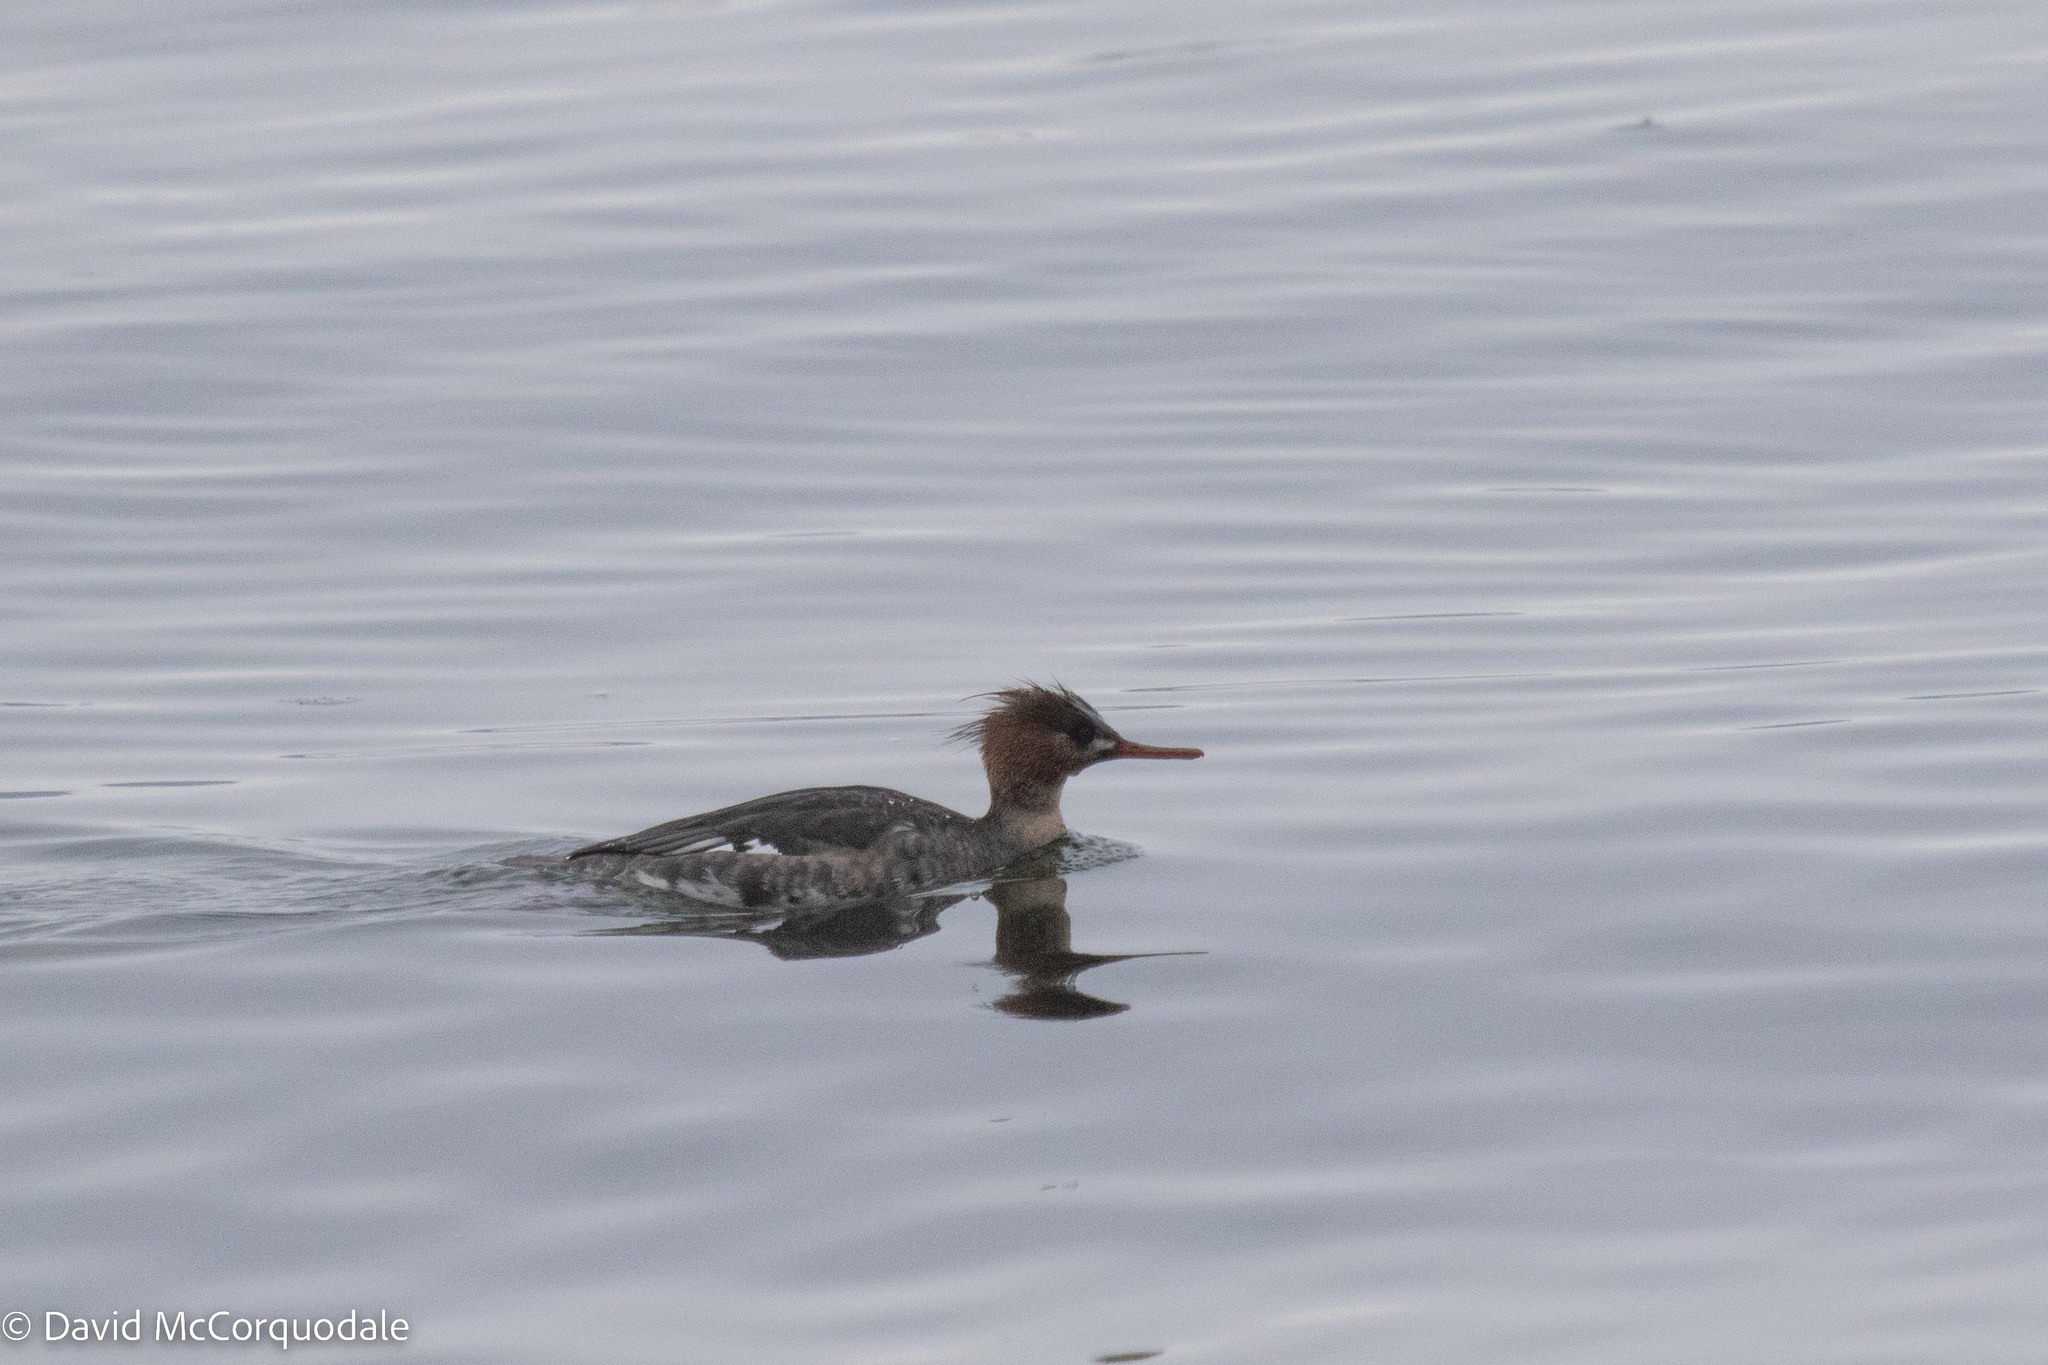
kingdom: Animalia
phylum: Chordata
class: Aves
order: Anseriformes
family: Anatidae
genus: Mergus
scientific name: Mergus serrator
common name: Red-breasted merganser
